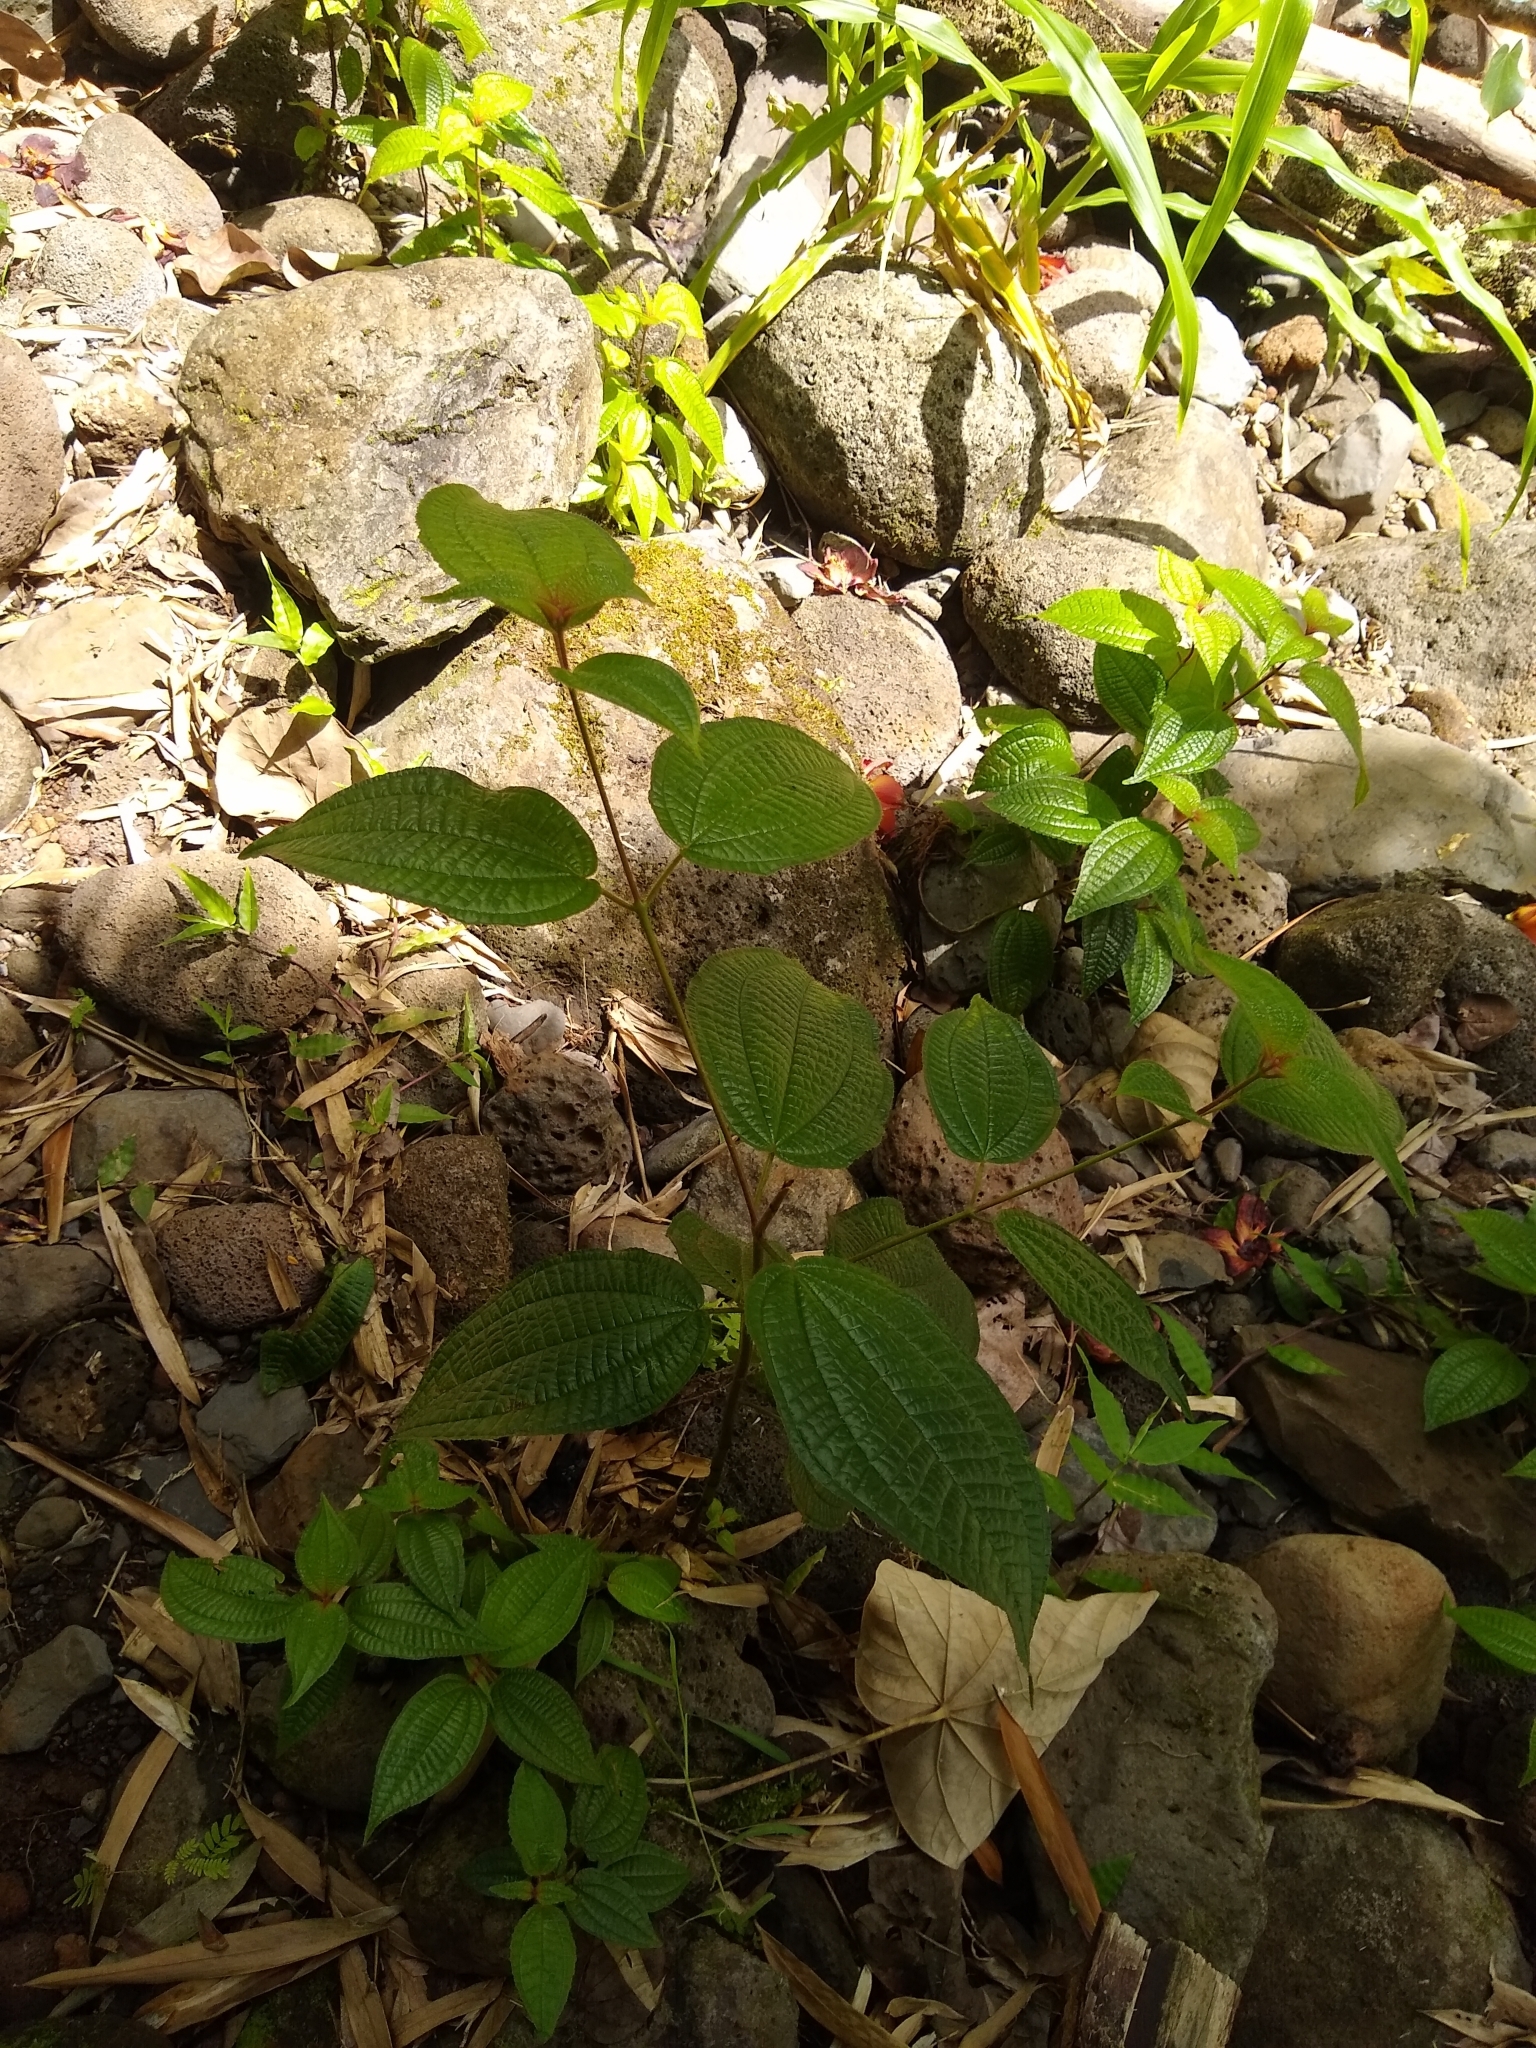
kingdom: Plantae
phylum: Tracheophyta
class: Magnoliopsida
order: Myrtales
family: Melastomataceae
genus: Miconia
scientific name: Miconia crenata
